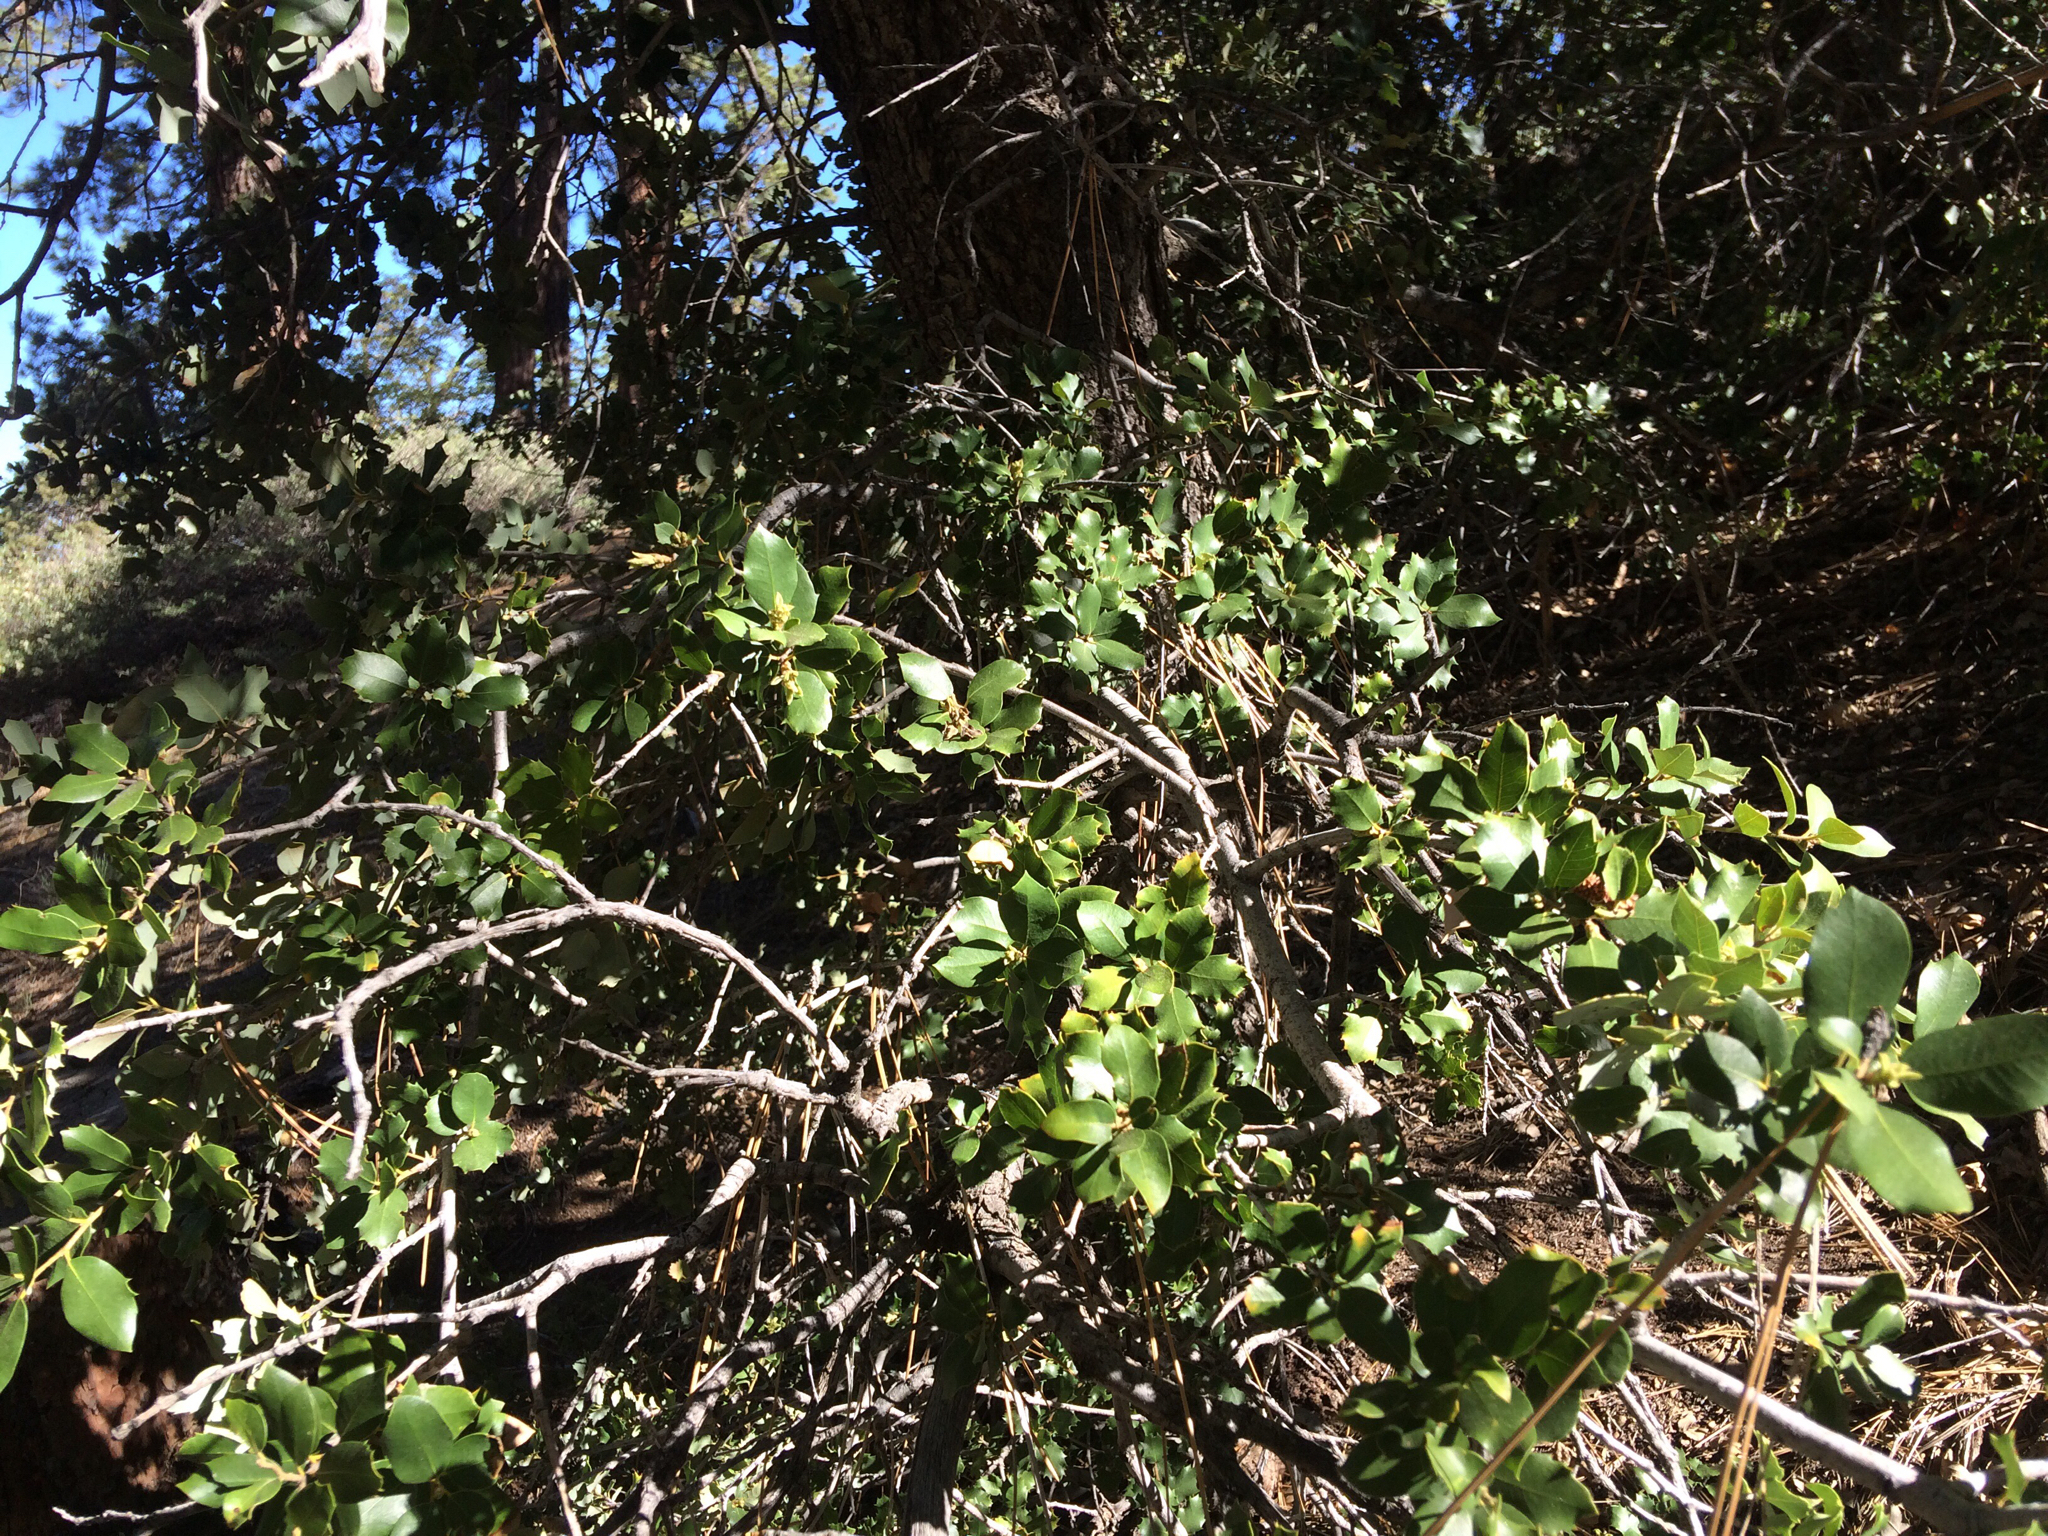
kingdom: Plantae
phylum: Tracheophyta
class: Magnoliopsida
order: Fagales
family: Fagaceae
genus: Quercus
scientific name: Quercus chrysolepis
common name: Canyon live oak
